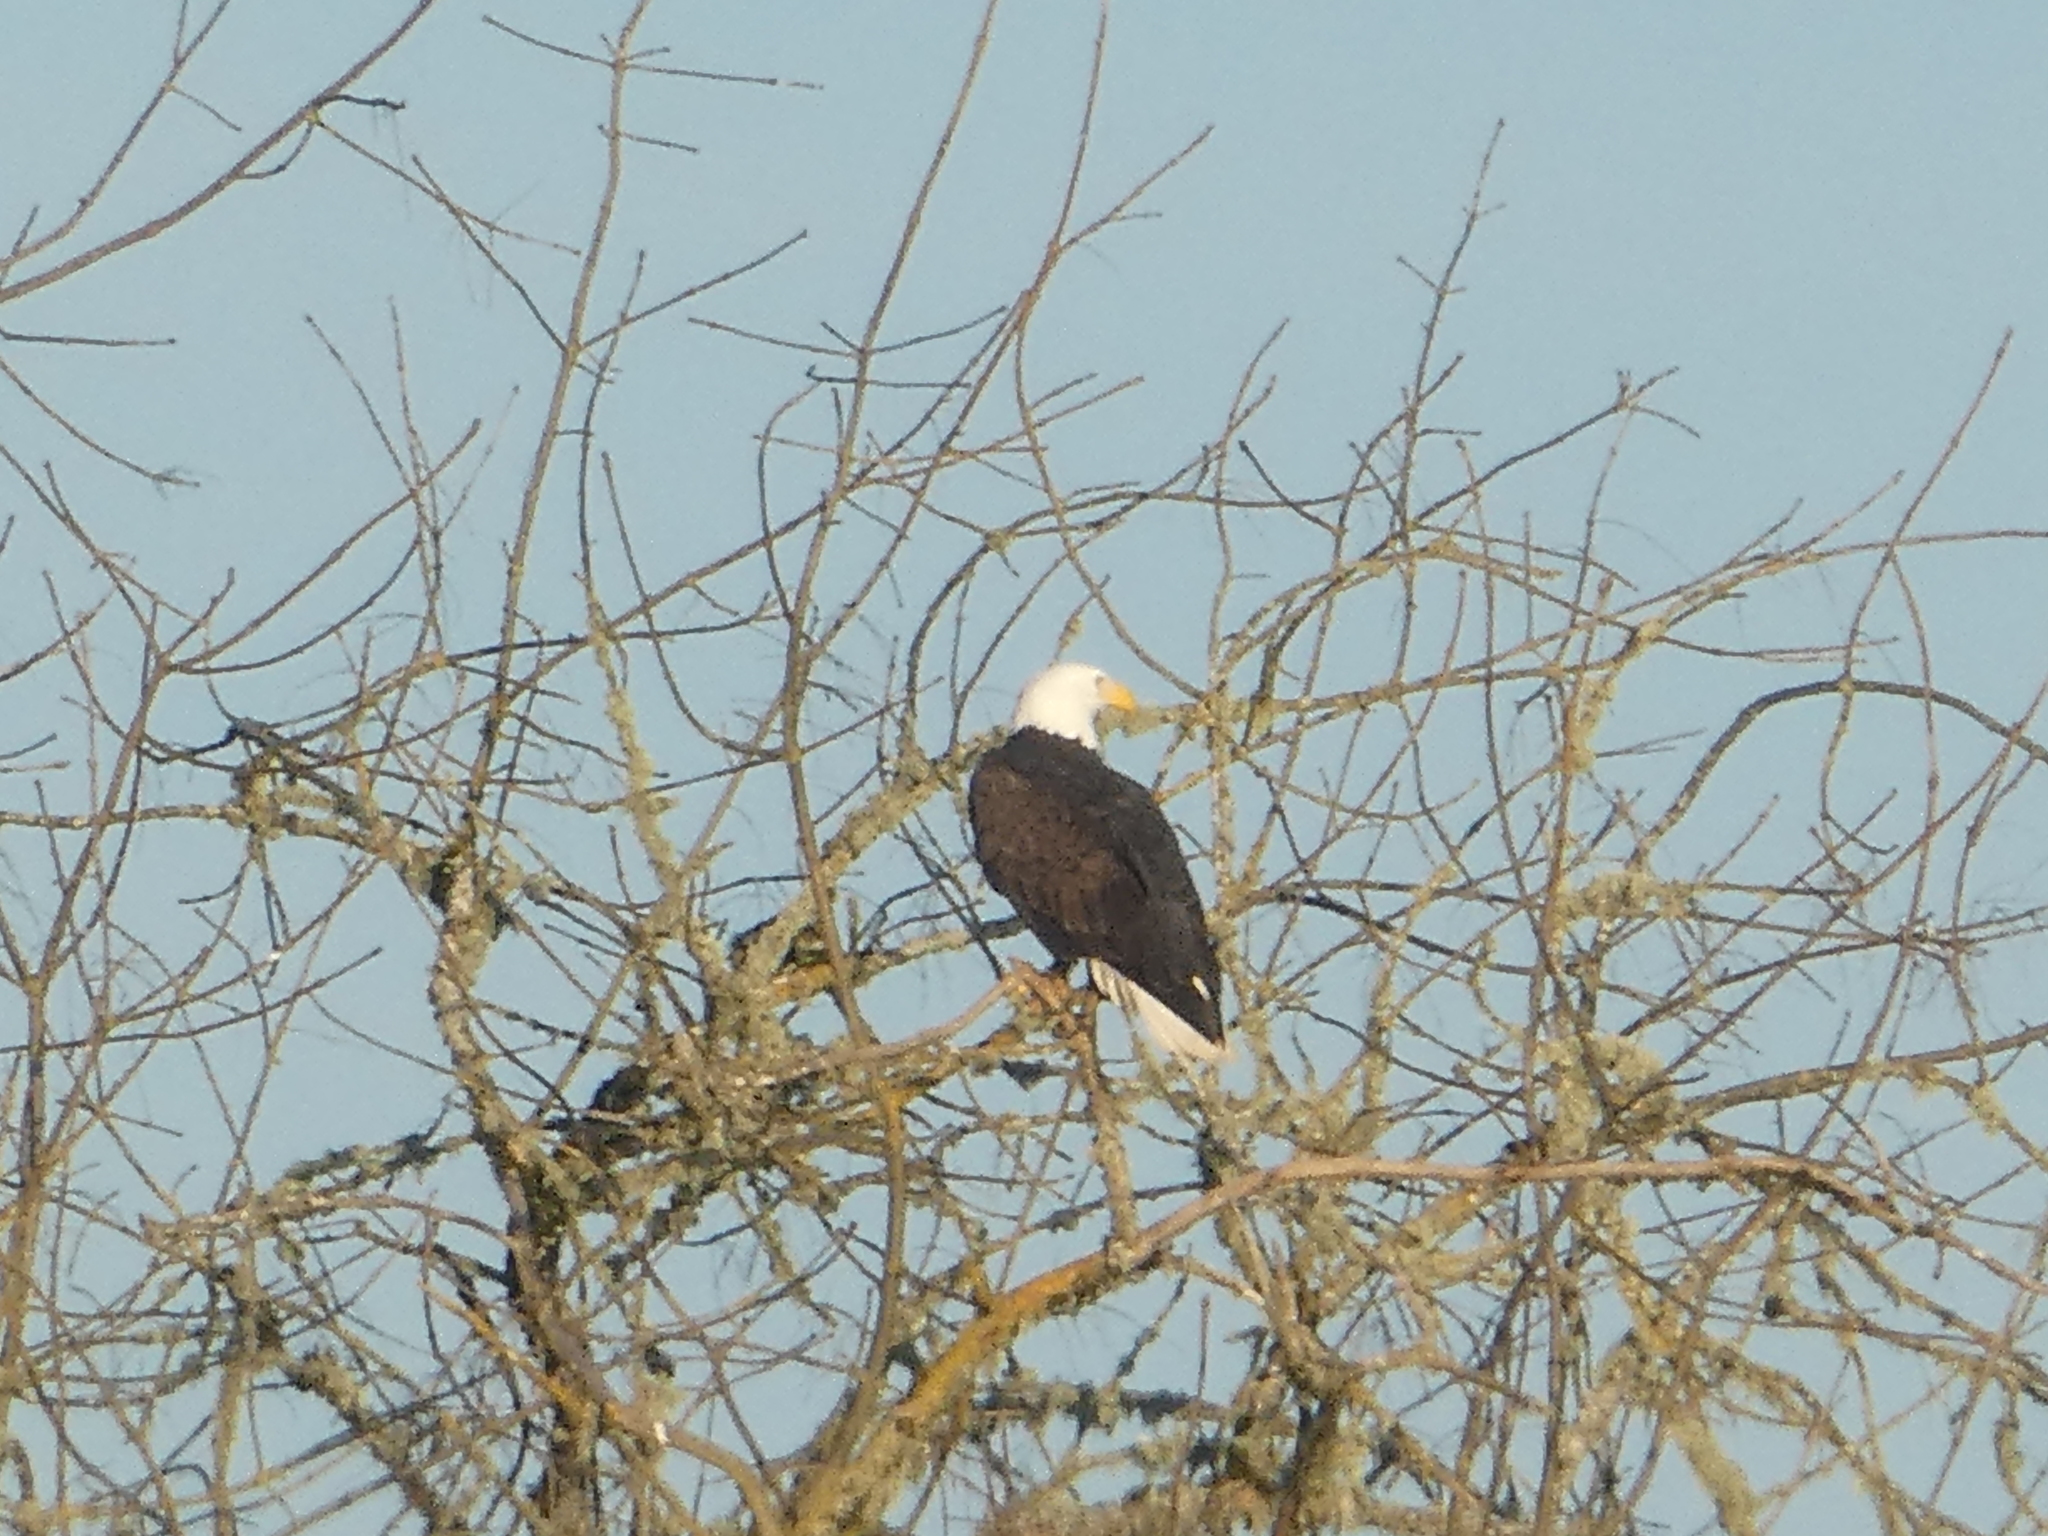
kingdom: Animalia
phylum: Chordata
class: Aves
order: Accipitriformes
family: Accipitridae
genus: Haliaeetus
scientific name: Haliaeetus leucocephalus
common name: Bald eagle
